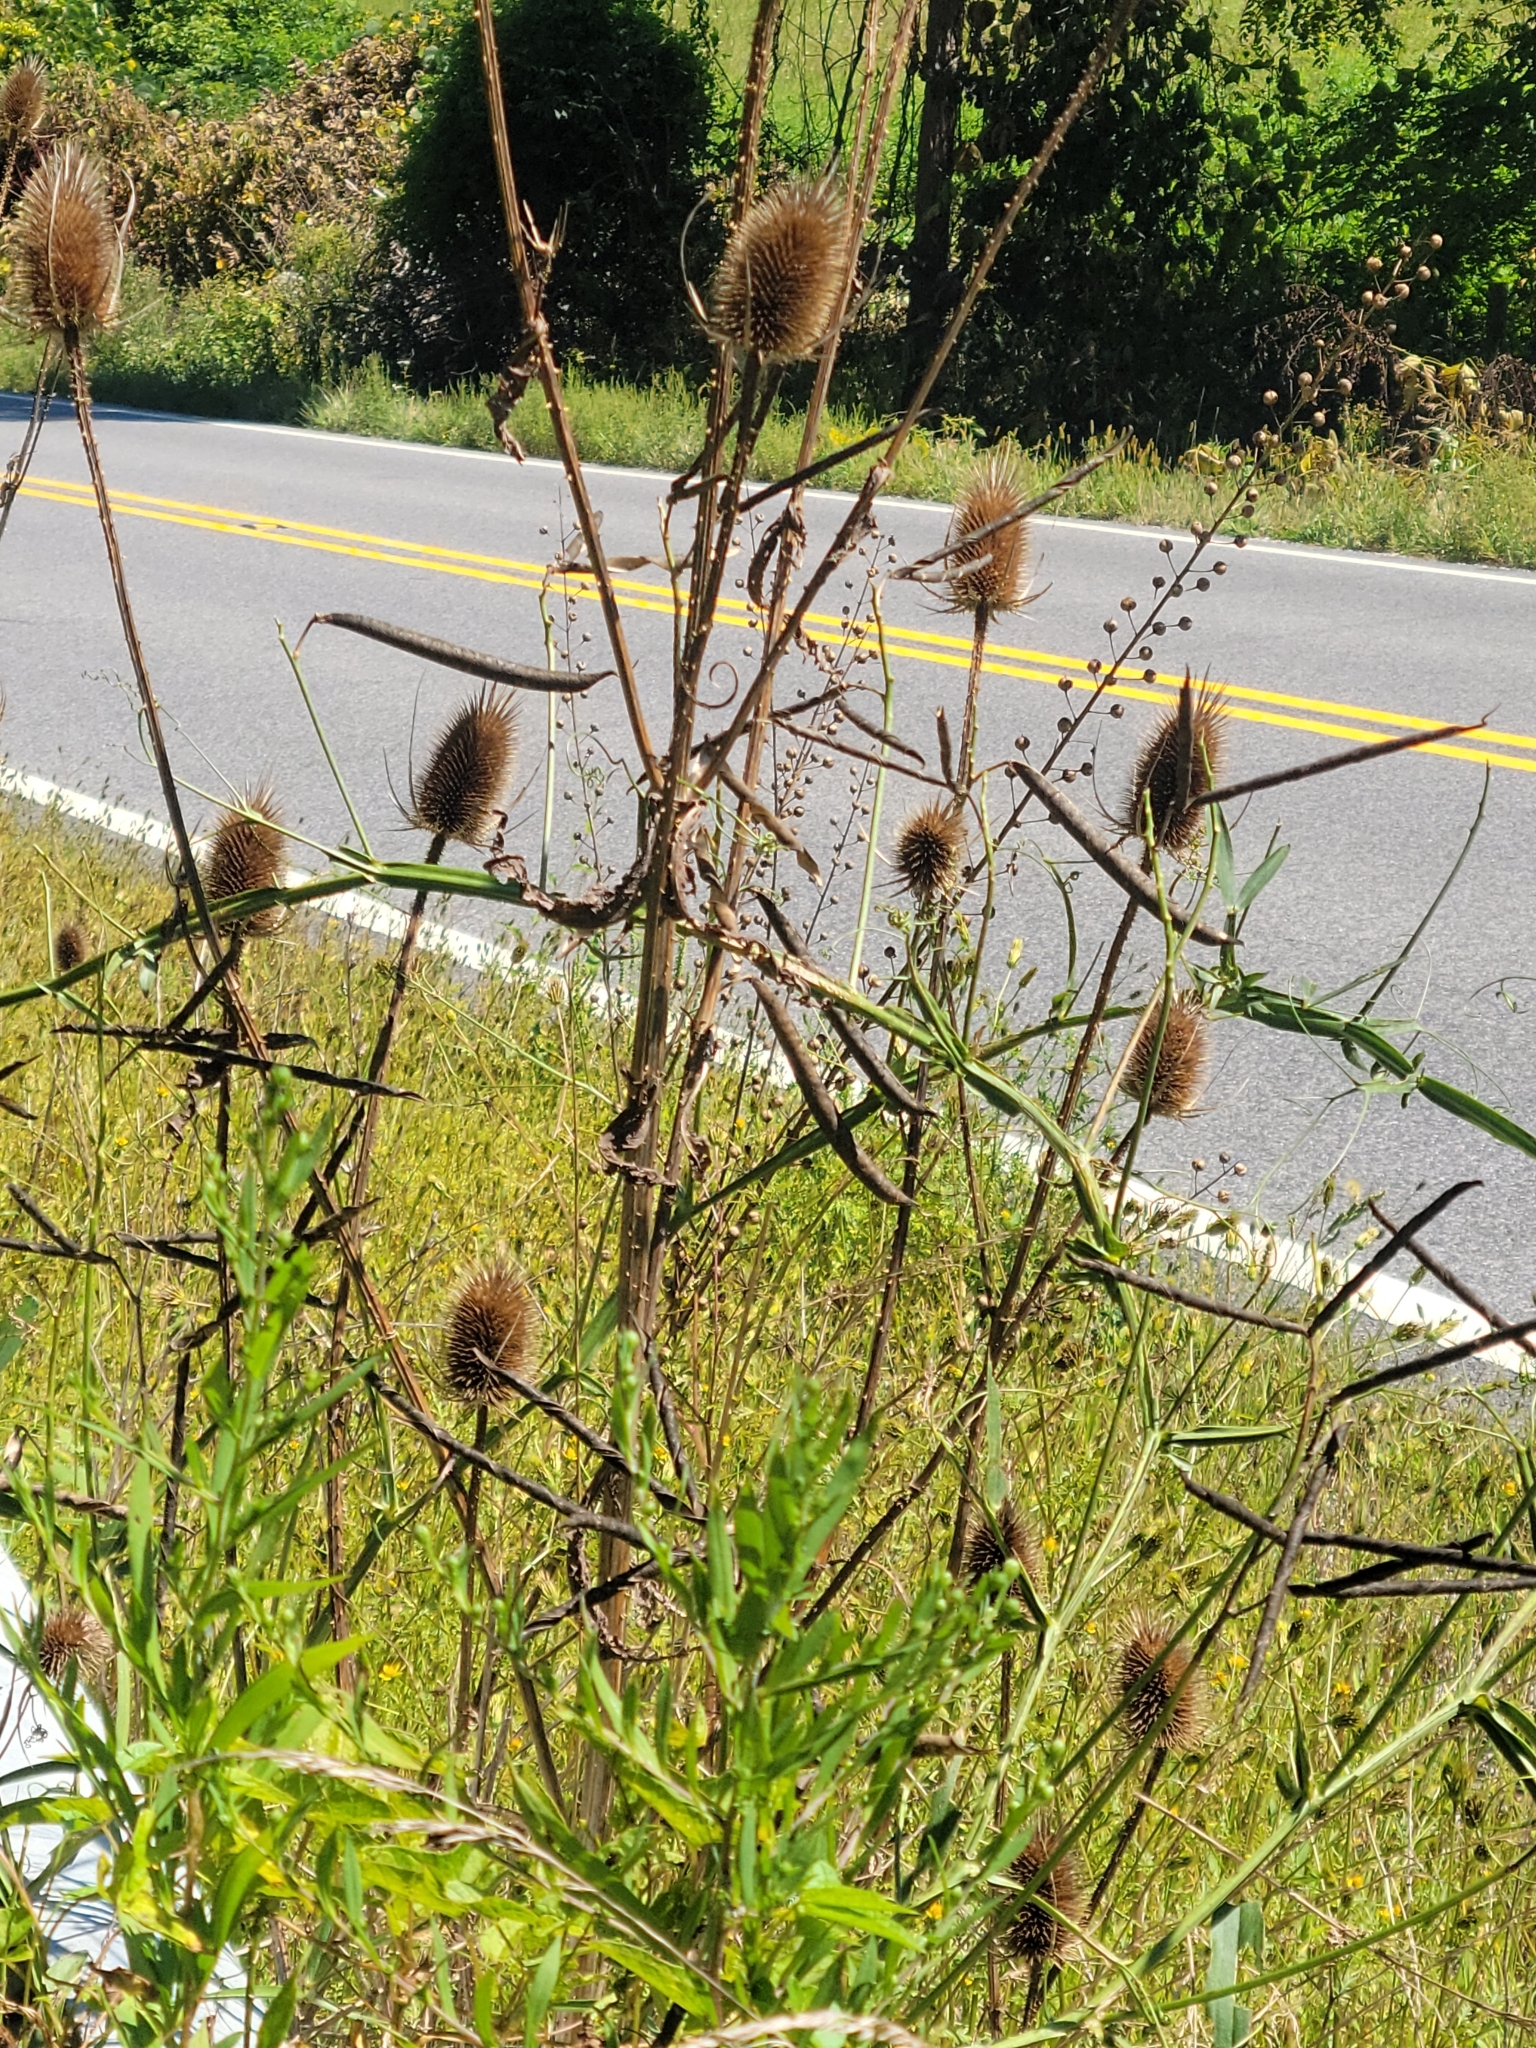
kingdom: Plantae
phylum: Tracheophyta
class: Magnoliopsida
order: Dipsacales
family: Caprifoliaceae
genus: Dipsacus
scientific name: Dipsacus fullonum
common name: Teasel
